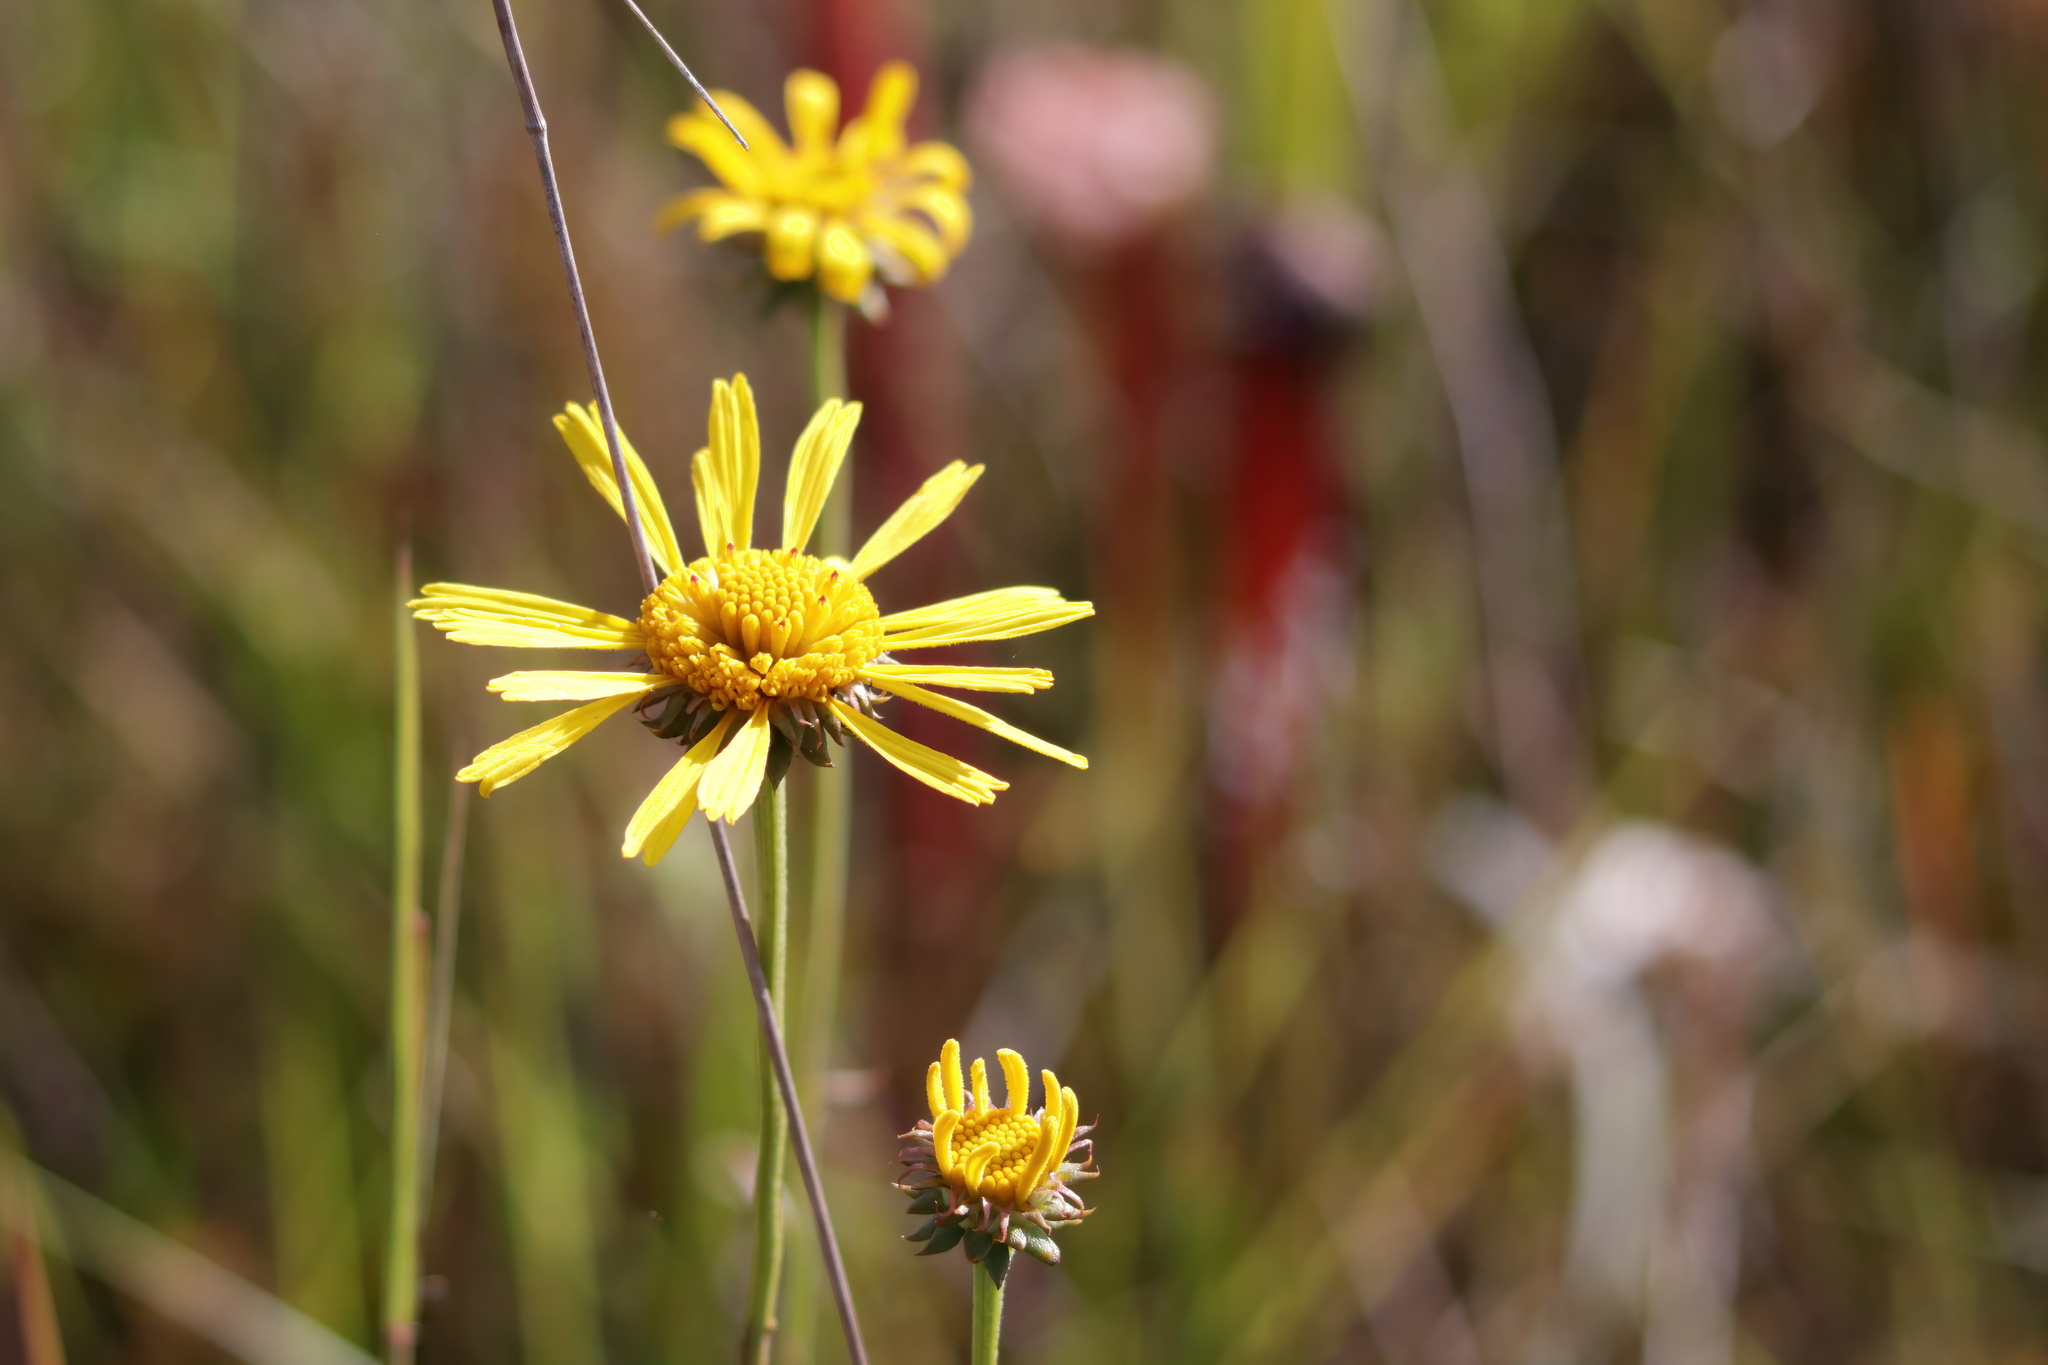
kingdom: Plantae
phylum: Tracheophyta
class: Magnoliopsida
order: Asterales
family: Asteraceae
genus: Balduina
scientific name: Balduina uniflora
